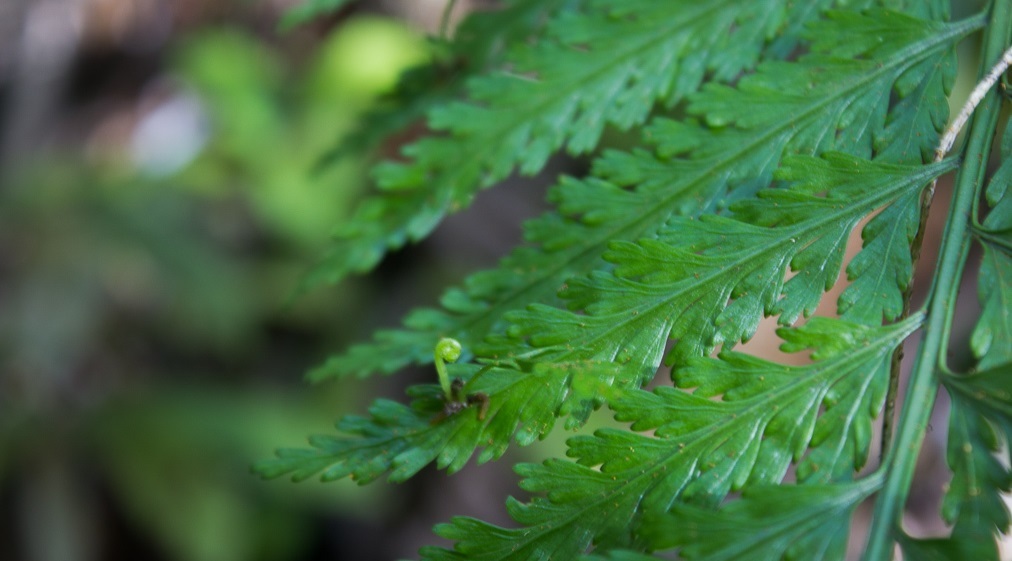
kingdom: Plantae
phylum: Tracheophyta
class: Polypodiopsida
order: Polypodiales
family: Aspleniaceae
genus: Asplenium
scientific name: Asplenium bulbiferum
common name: Mother fern
